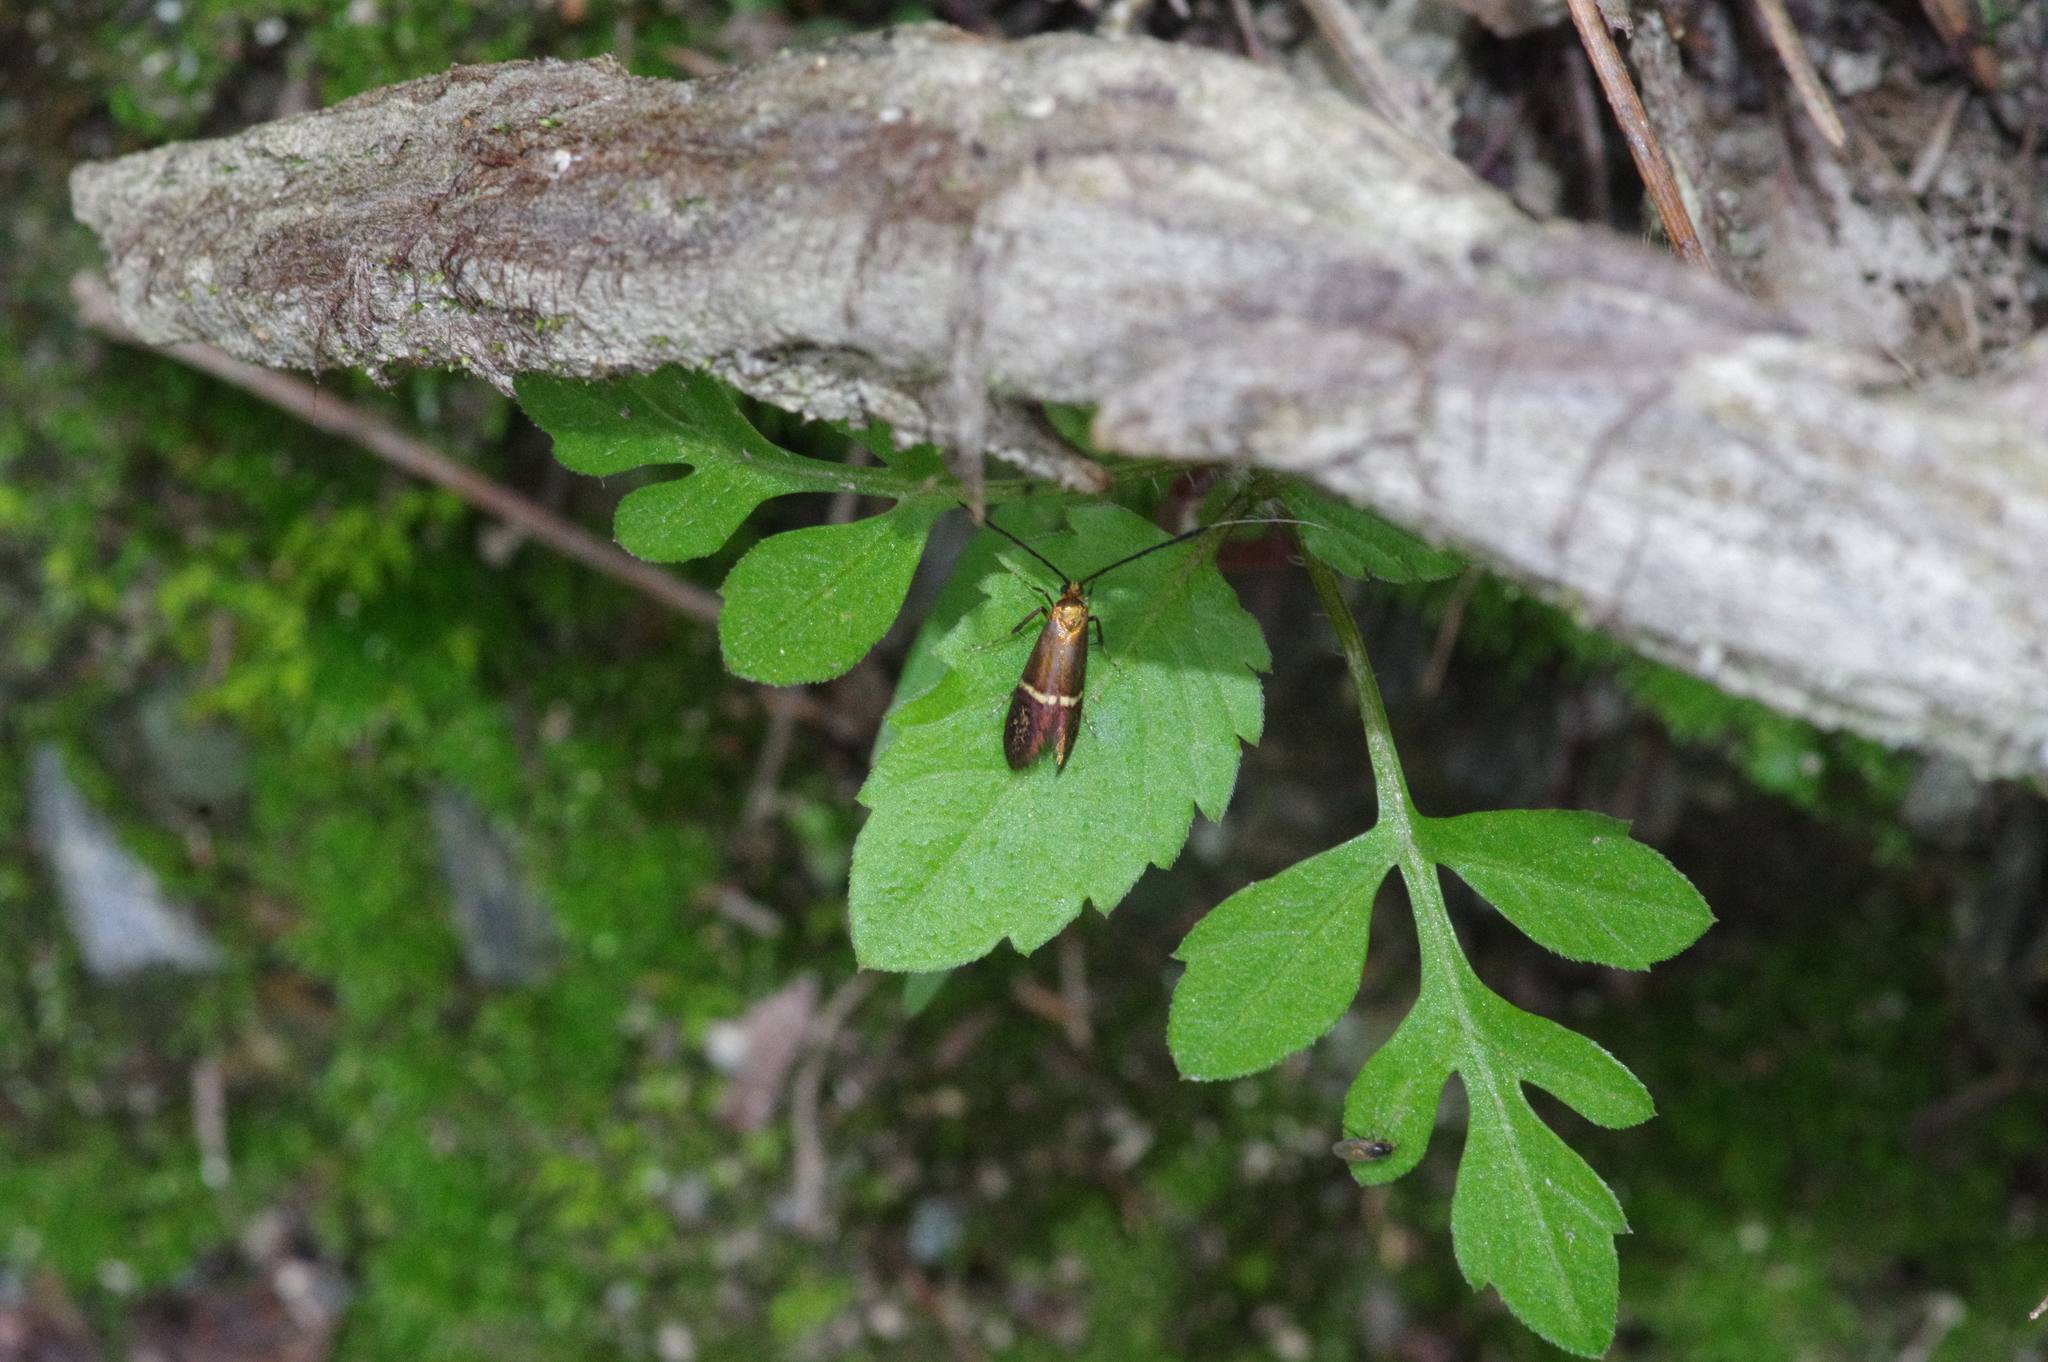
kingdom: Animalia
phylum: Arthropoda
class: Insecta
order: Lepidoptera
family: Adelidae
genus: Nemophora
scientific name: Nemophora aurifera
